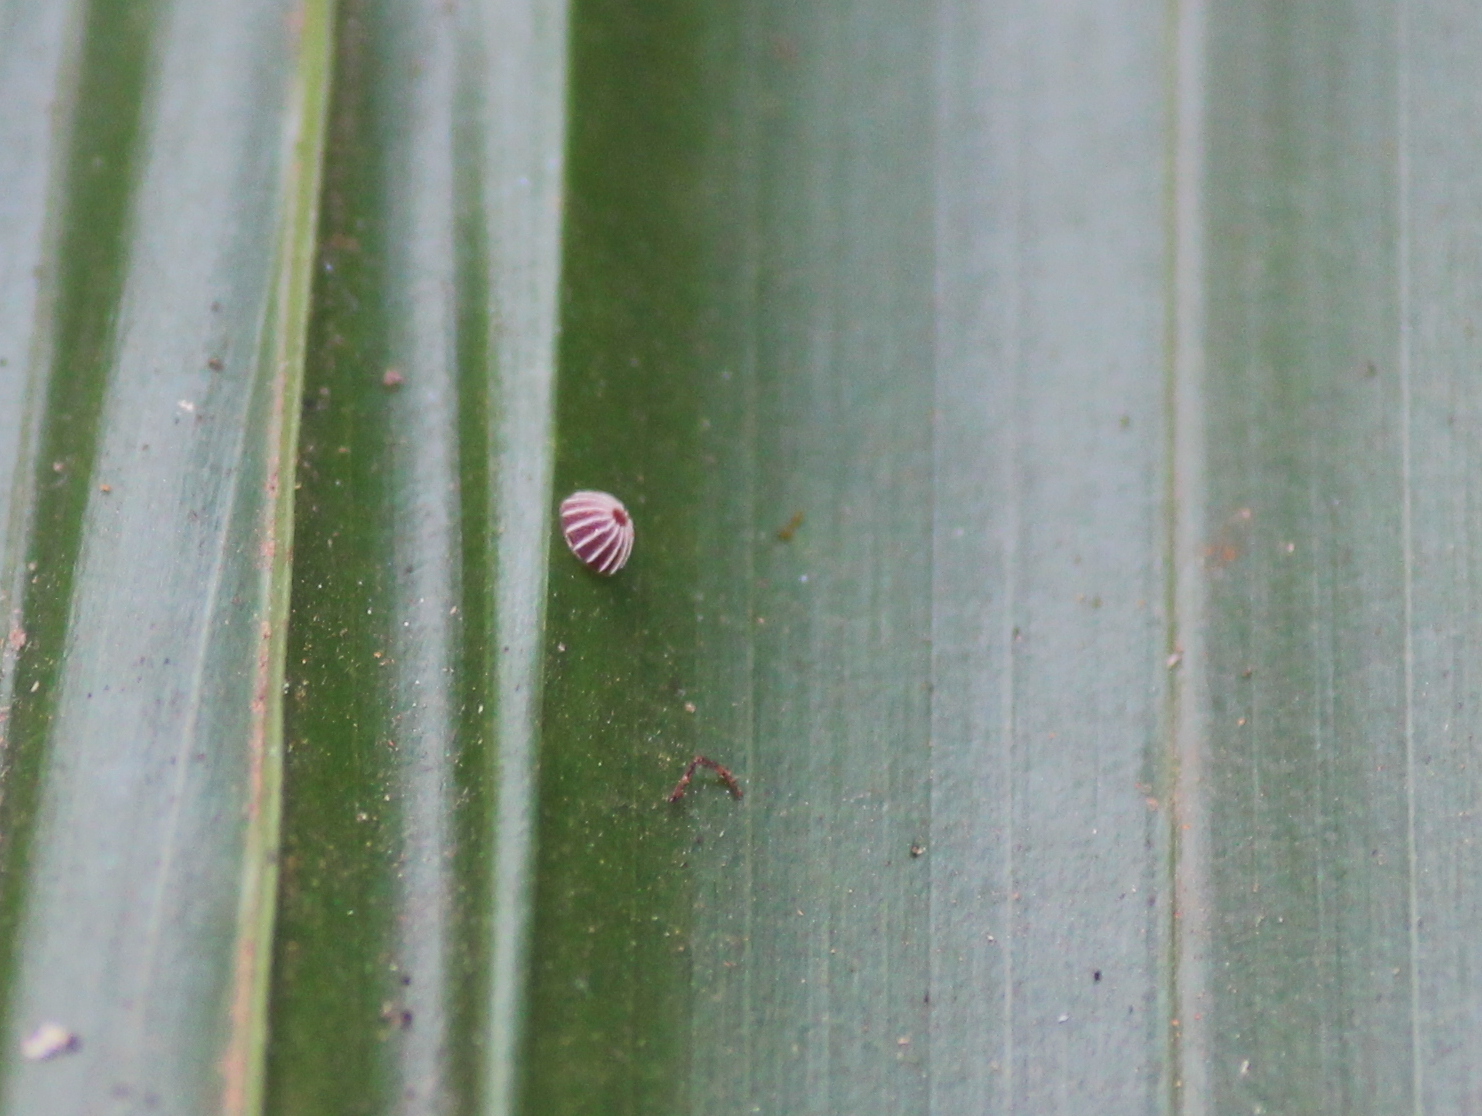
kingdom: Animalia
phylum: Arthropoda
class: Insecta
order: Lepidoptera
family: Hesperiidae
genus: Suastus
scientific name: Suastus gremius
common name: Indian palm bob
